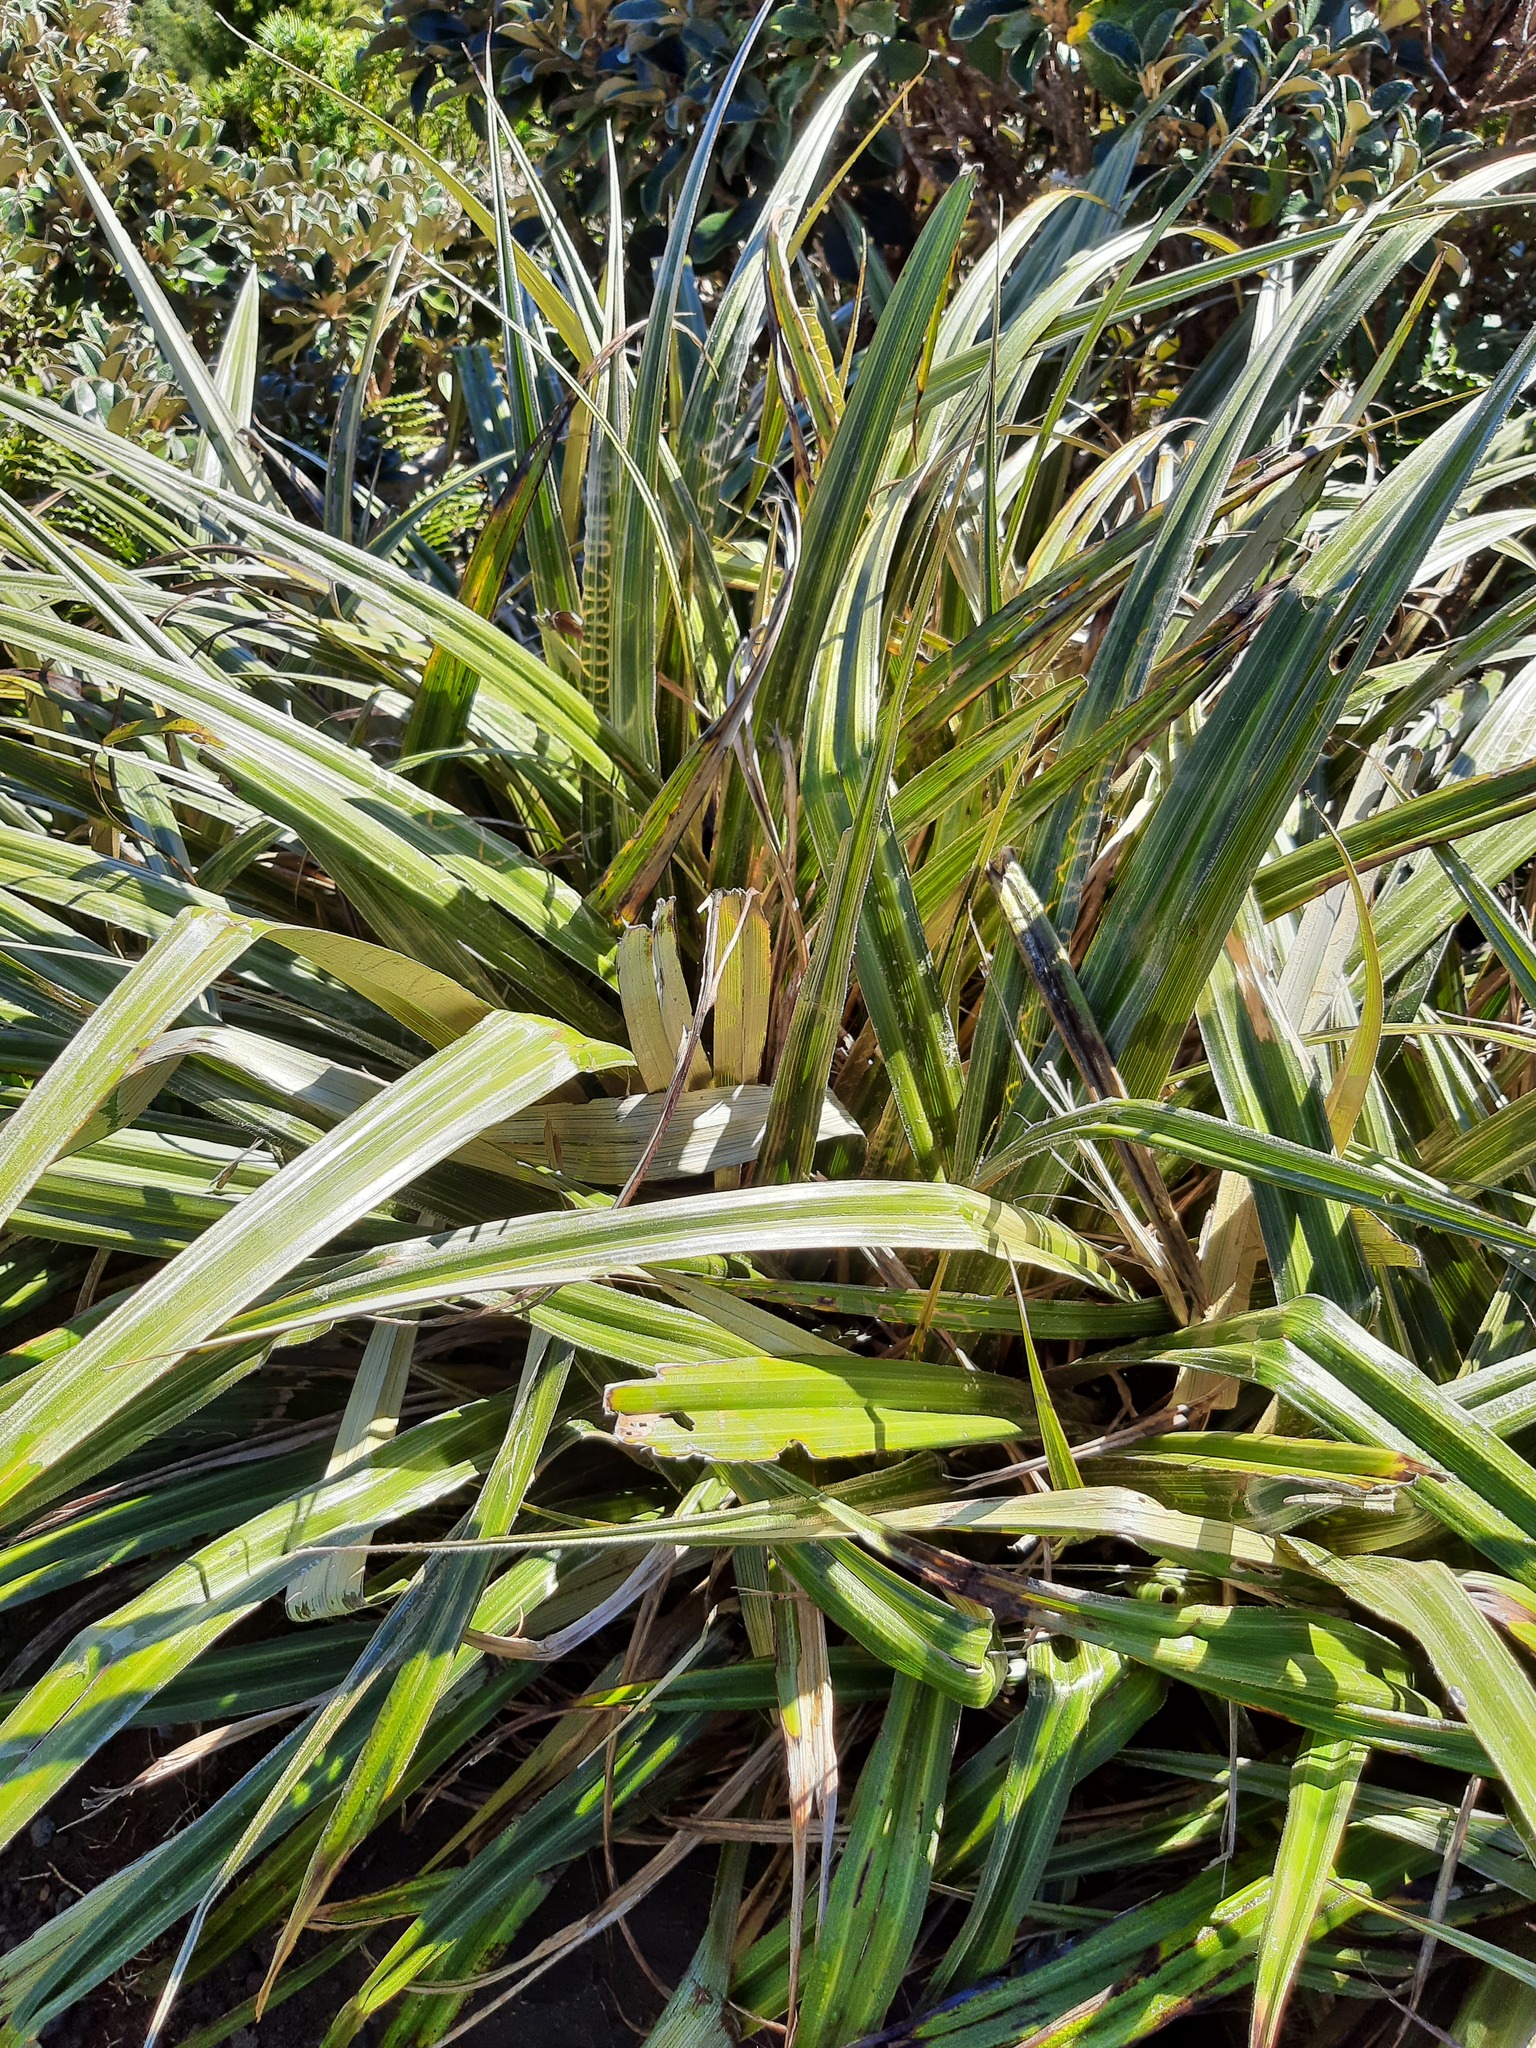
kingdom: Plantae
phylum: Tracheophyta
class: Liliopsida
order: Asparagales
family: Asteliaceae
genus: Astelia
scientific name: Astelia nervosa
